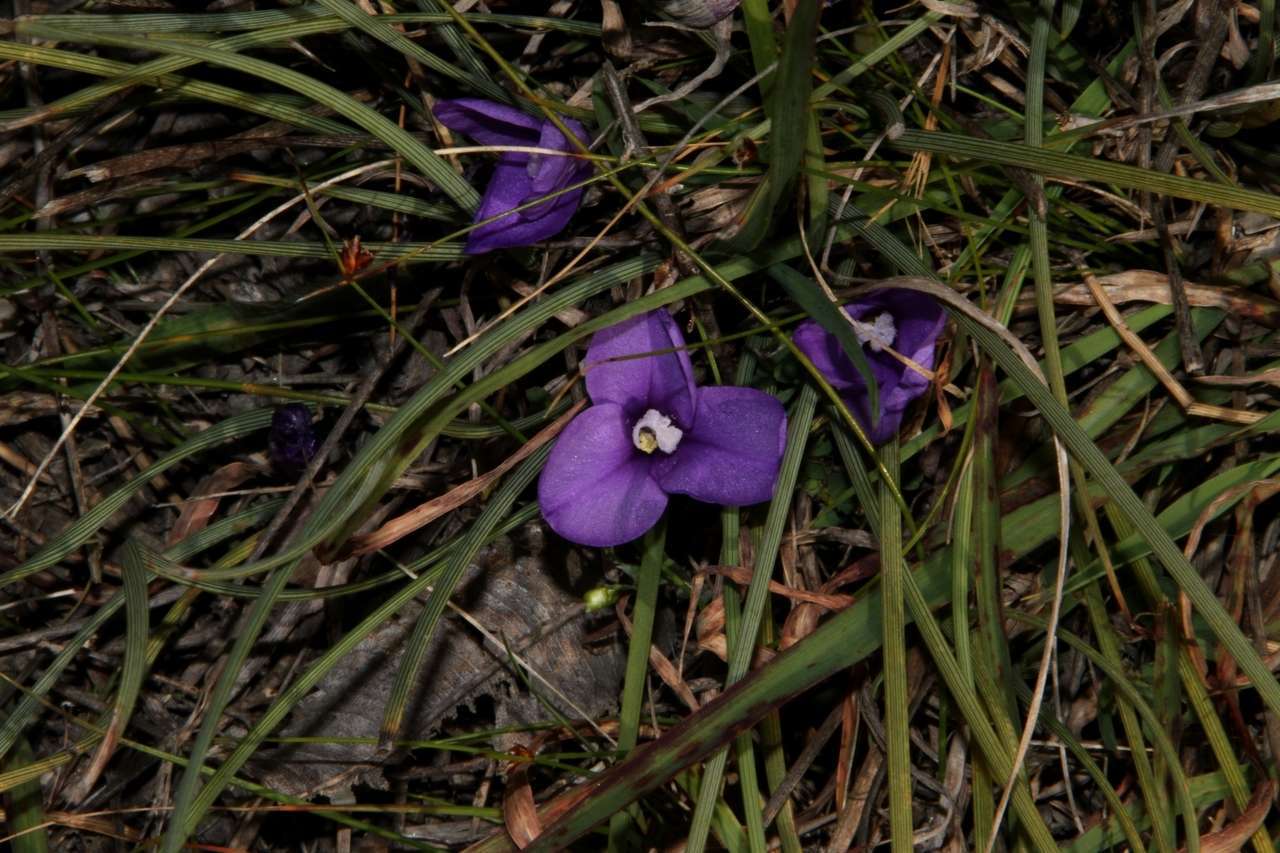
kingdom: Plantae
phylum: Tracheophyta
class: Liliopsida
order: Asparagales
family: Iridaceae
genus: Patersonia
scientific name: Patersonia fragilis
